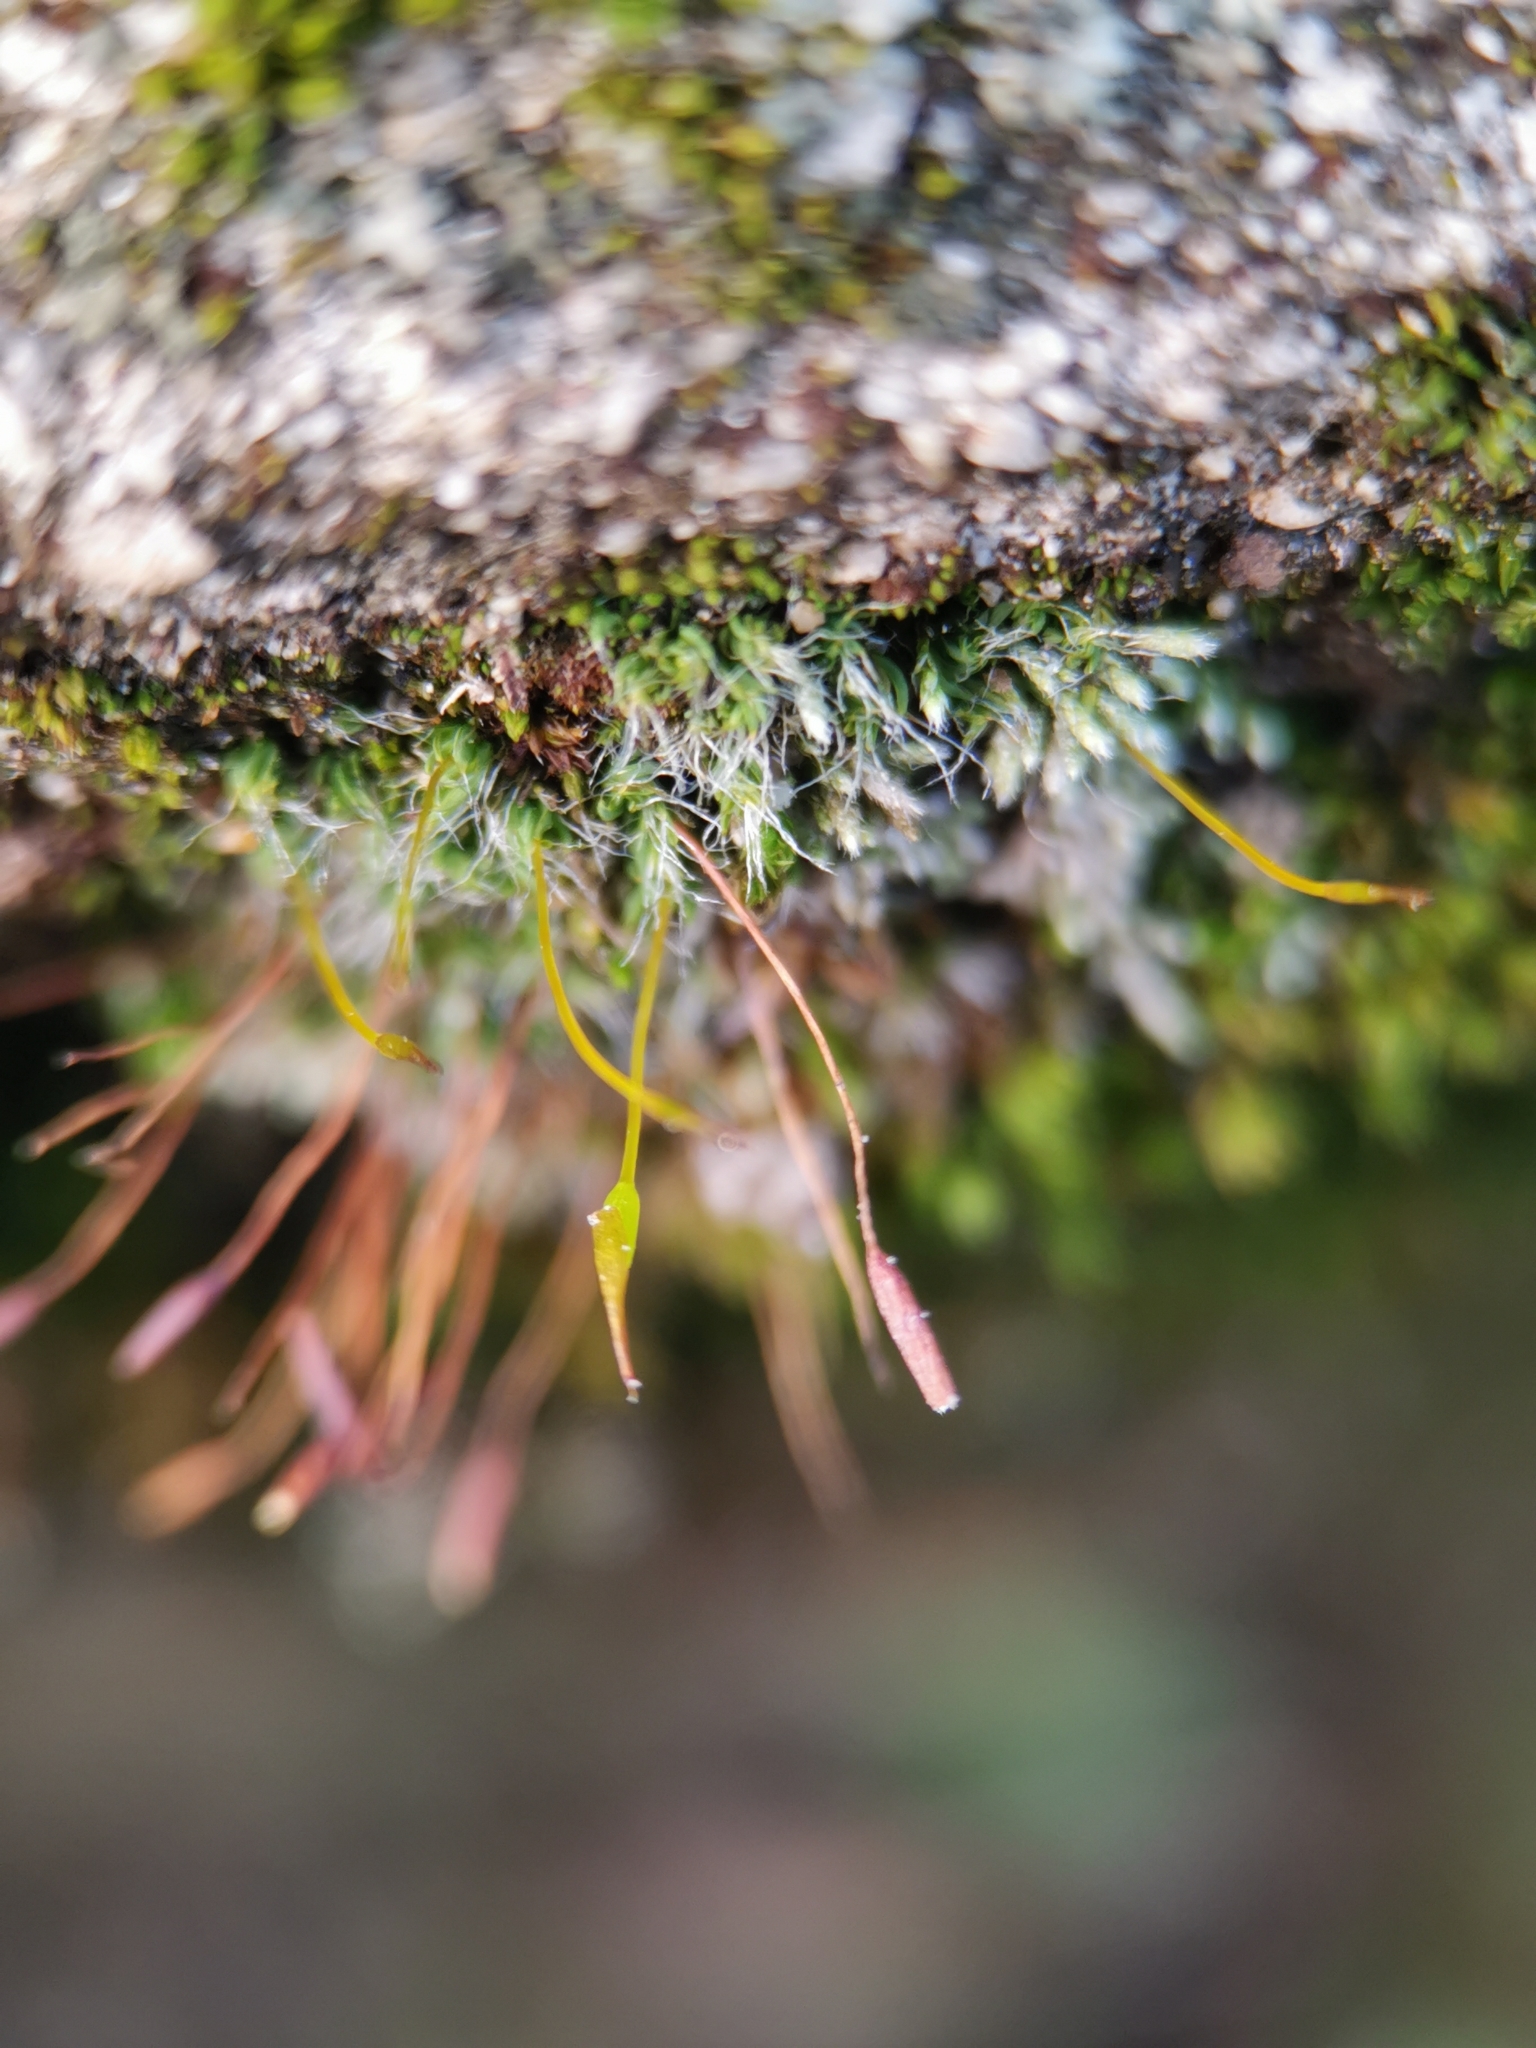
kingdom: Plantae
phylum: Bryophyta
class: Bryopsida
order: Pottiales
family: Pottiaceae
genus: Tortula
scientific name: Tortula muralis
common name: Wall screw-moss
